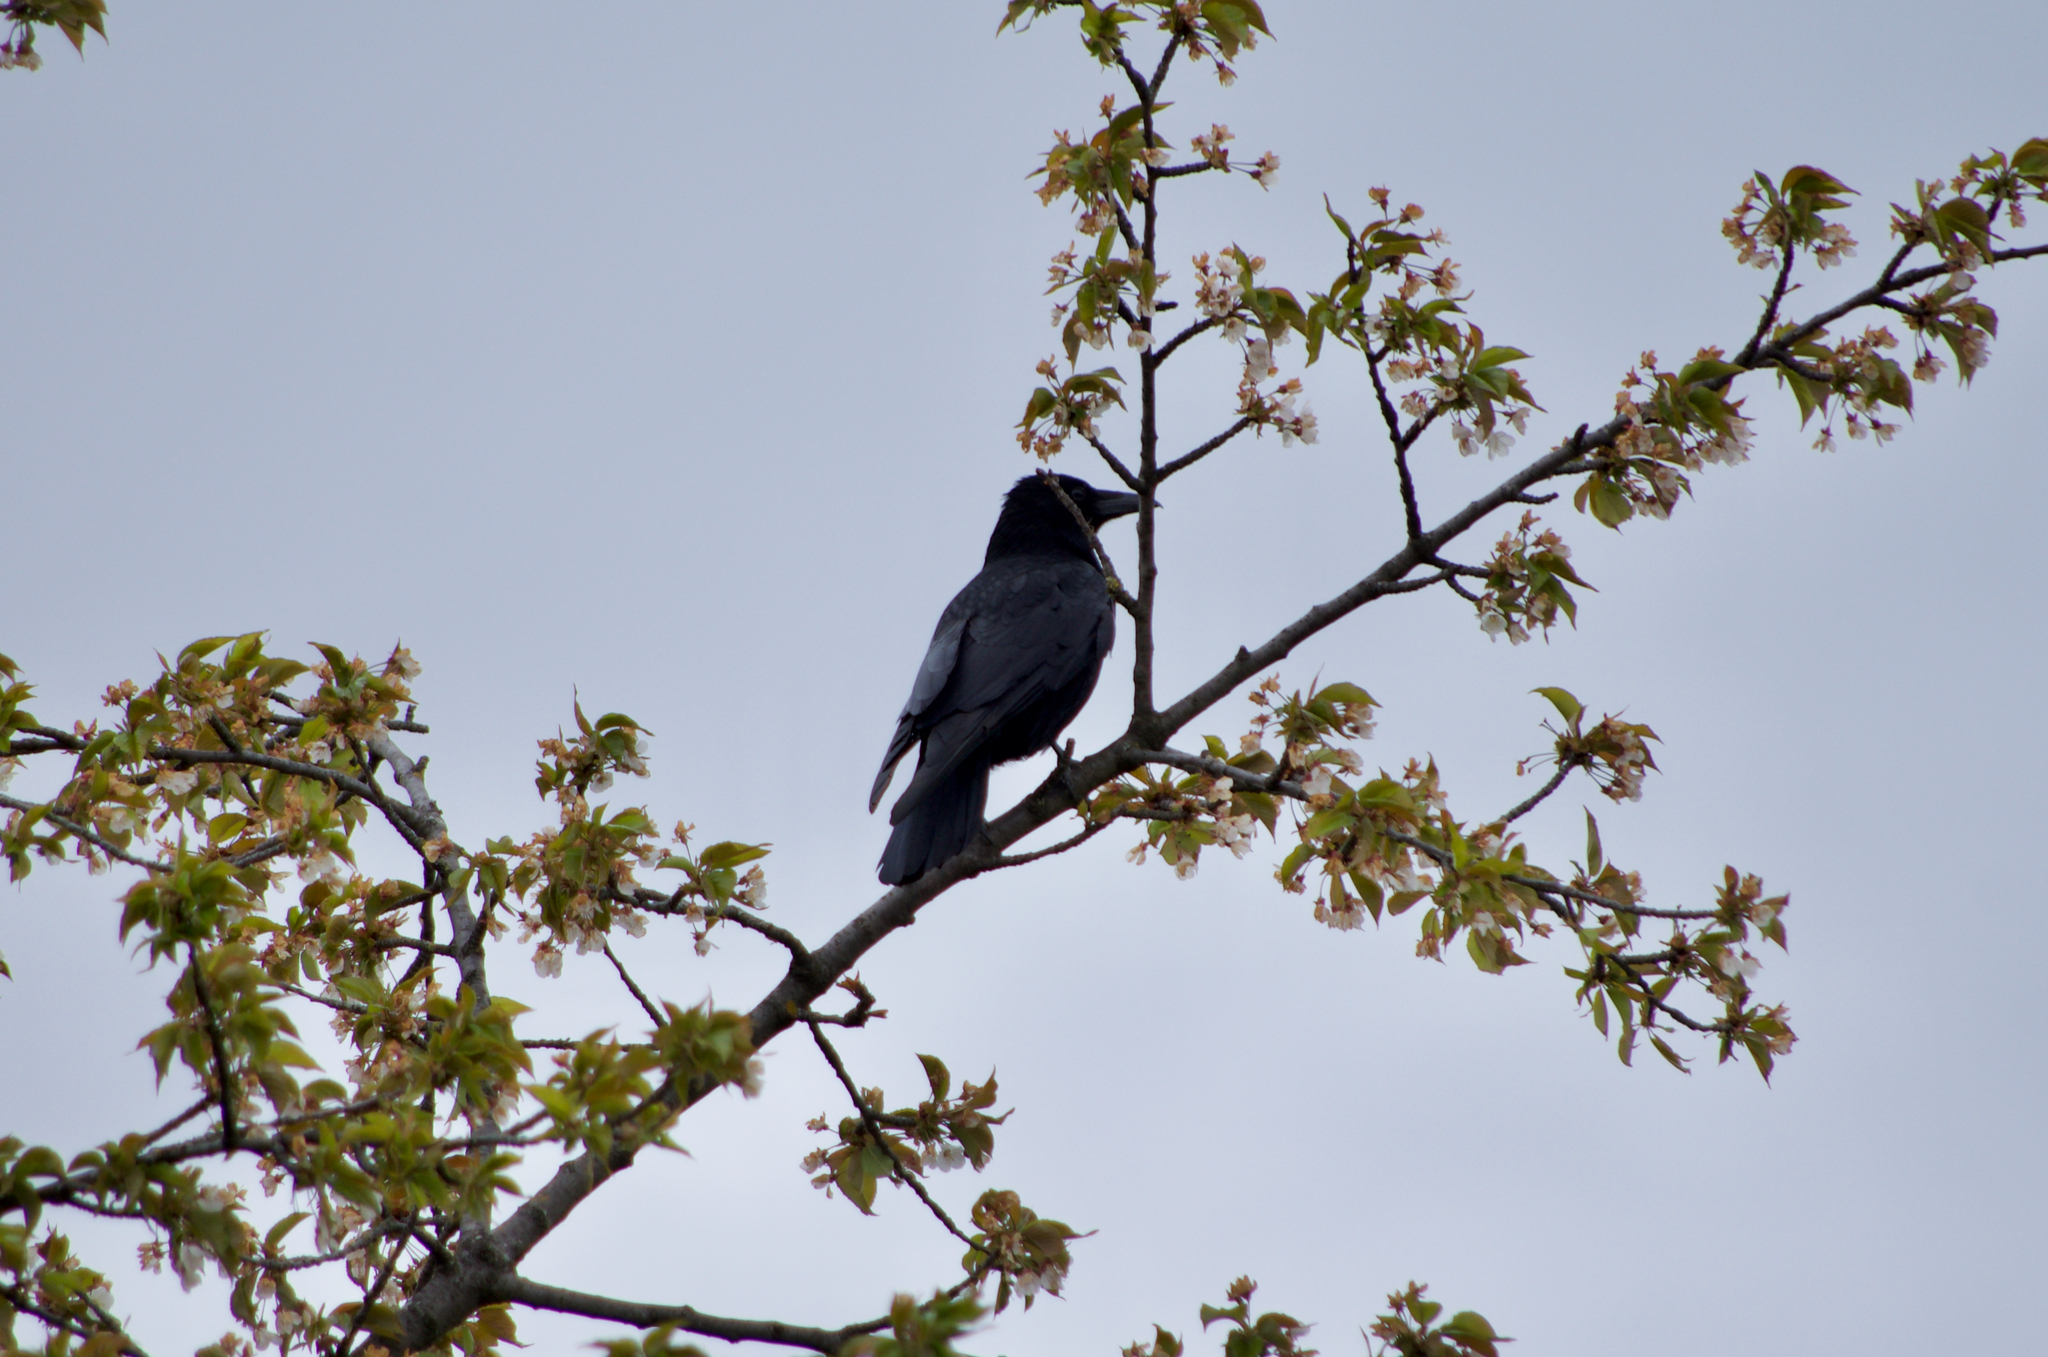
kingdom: Animalia
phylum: Chordata
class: Aves
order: Passeriformes
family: Corvidae
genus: Corvus
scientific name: Corvus corone
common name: Carrion crow
